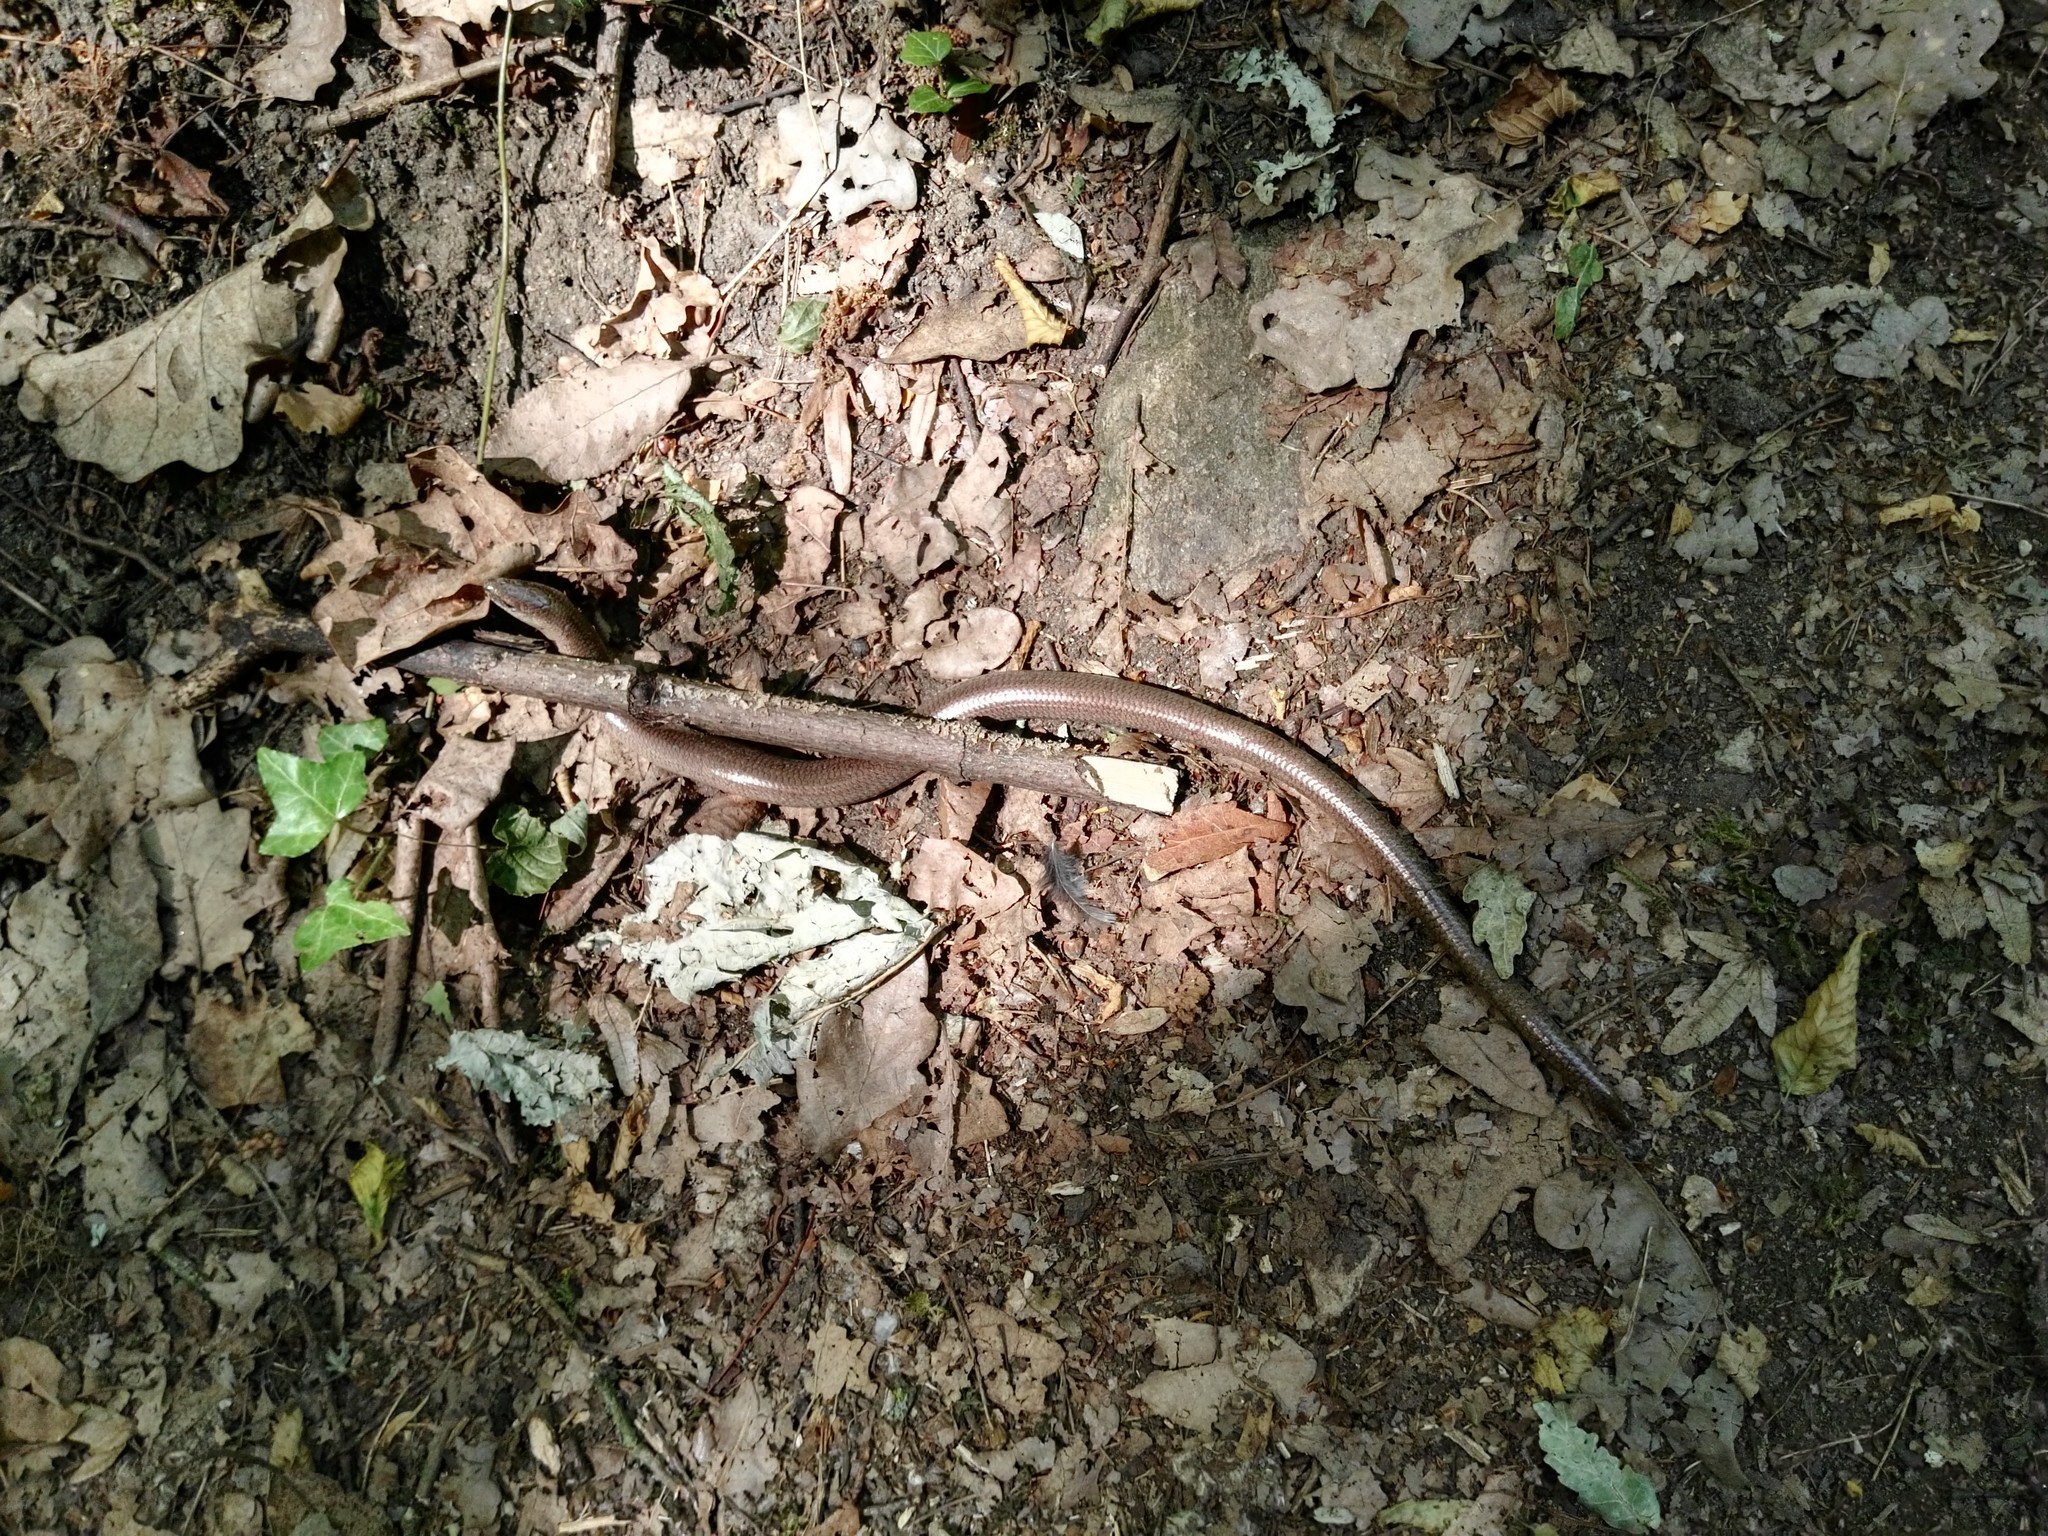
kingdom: Animalia
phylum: Chordata
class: Squamata
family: Anguidae
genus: Anguis
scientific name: Anguis fragilis
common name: Slow worm
